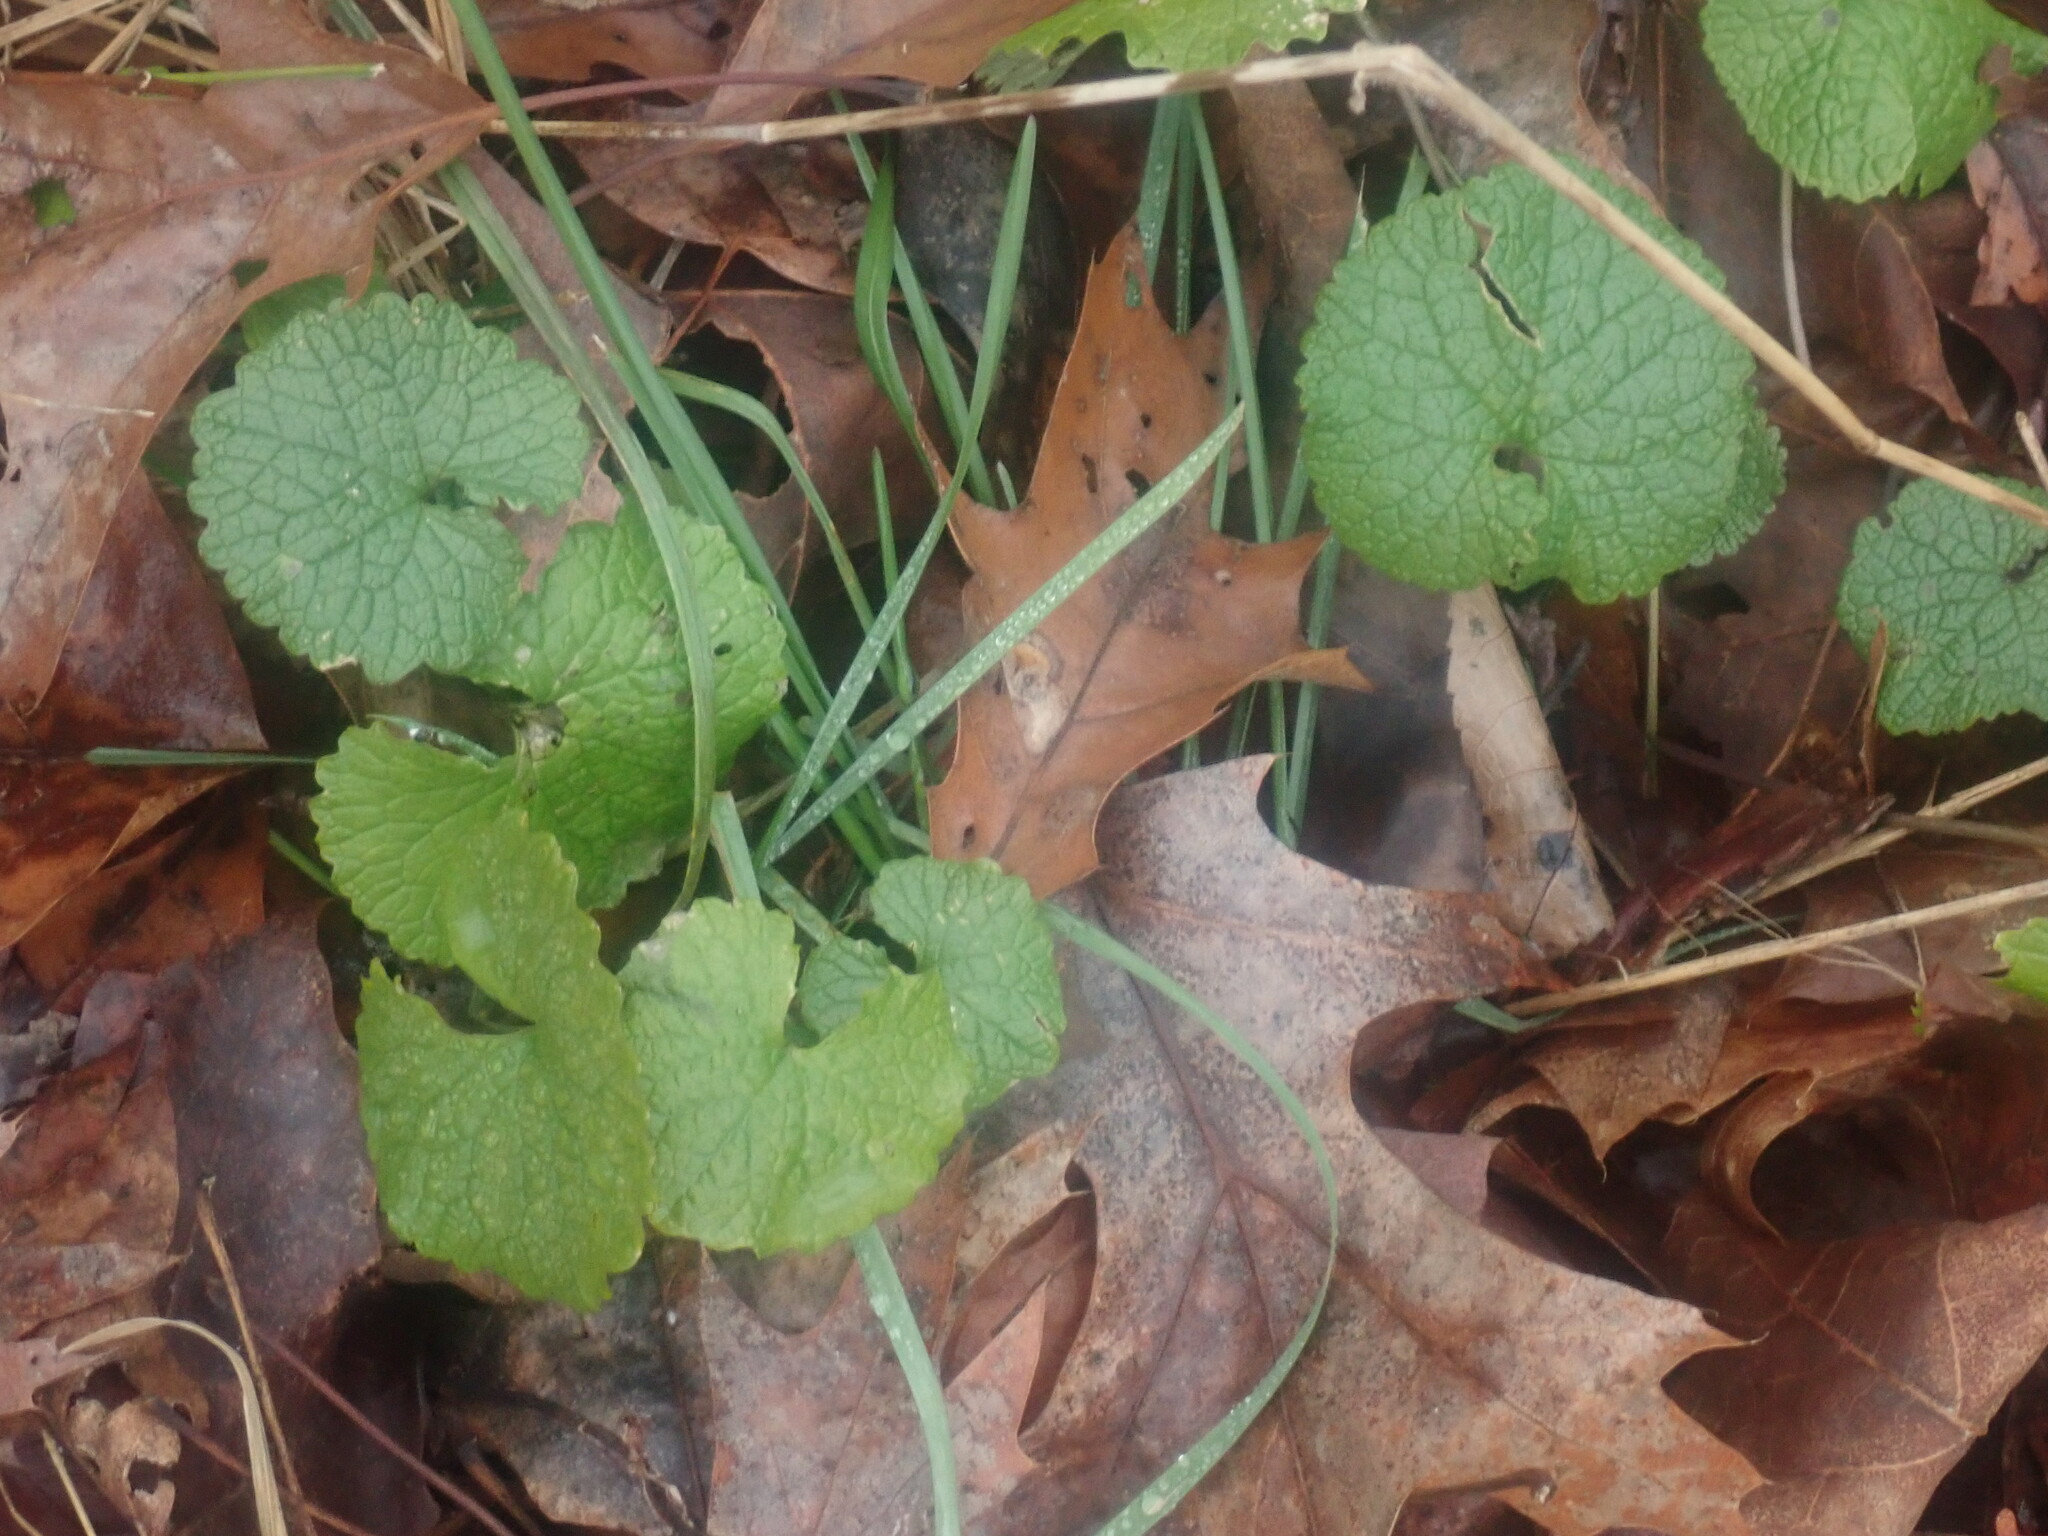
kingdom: Plantae
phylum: Tracheophyta
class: Magnoliopsida
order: Brassicales
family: Brassicaceae
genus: Alliaria
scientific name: Alliaria petiolata
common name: Garlic mustard
